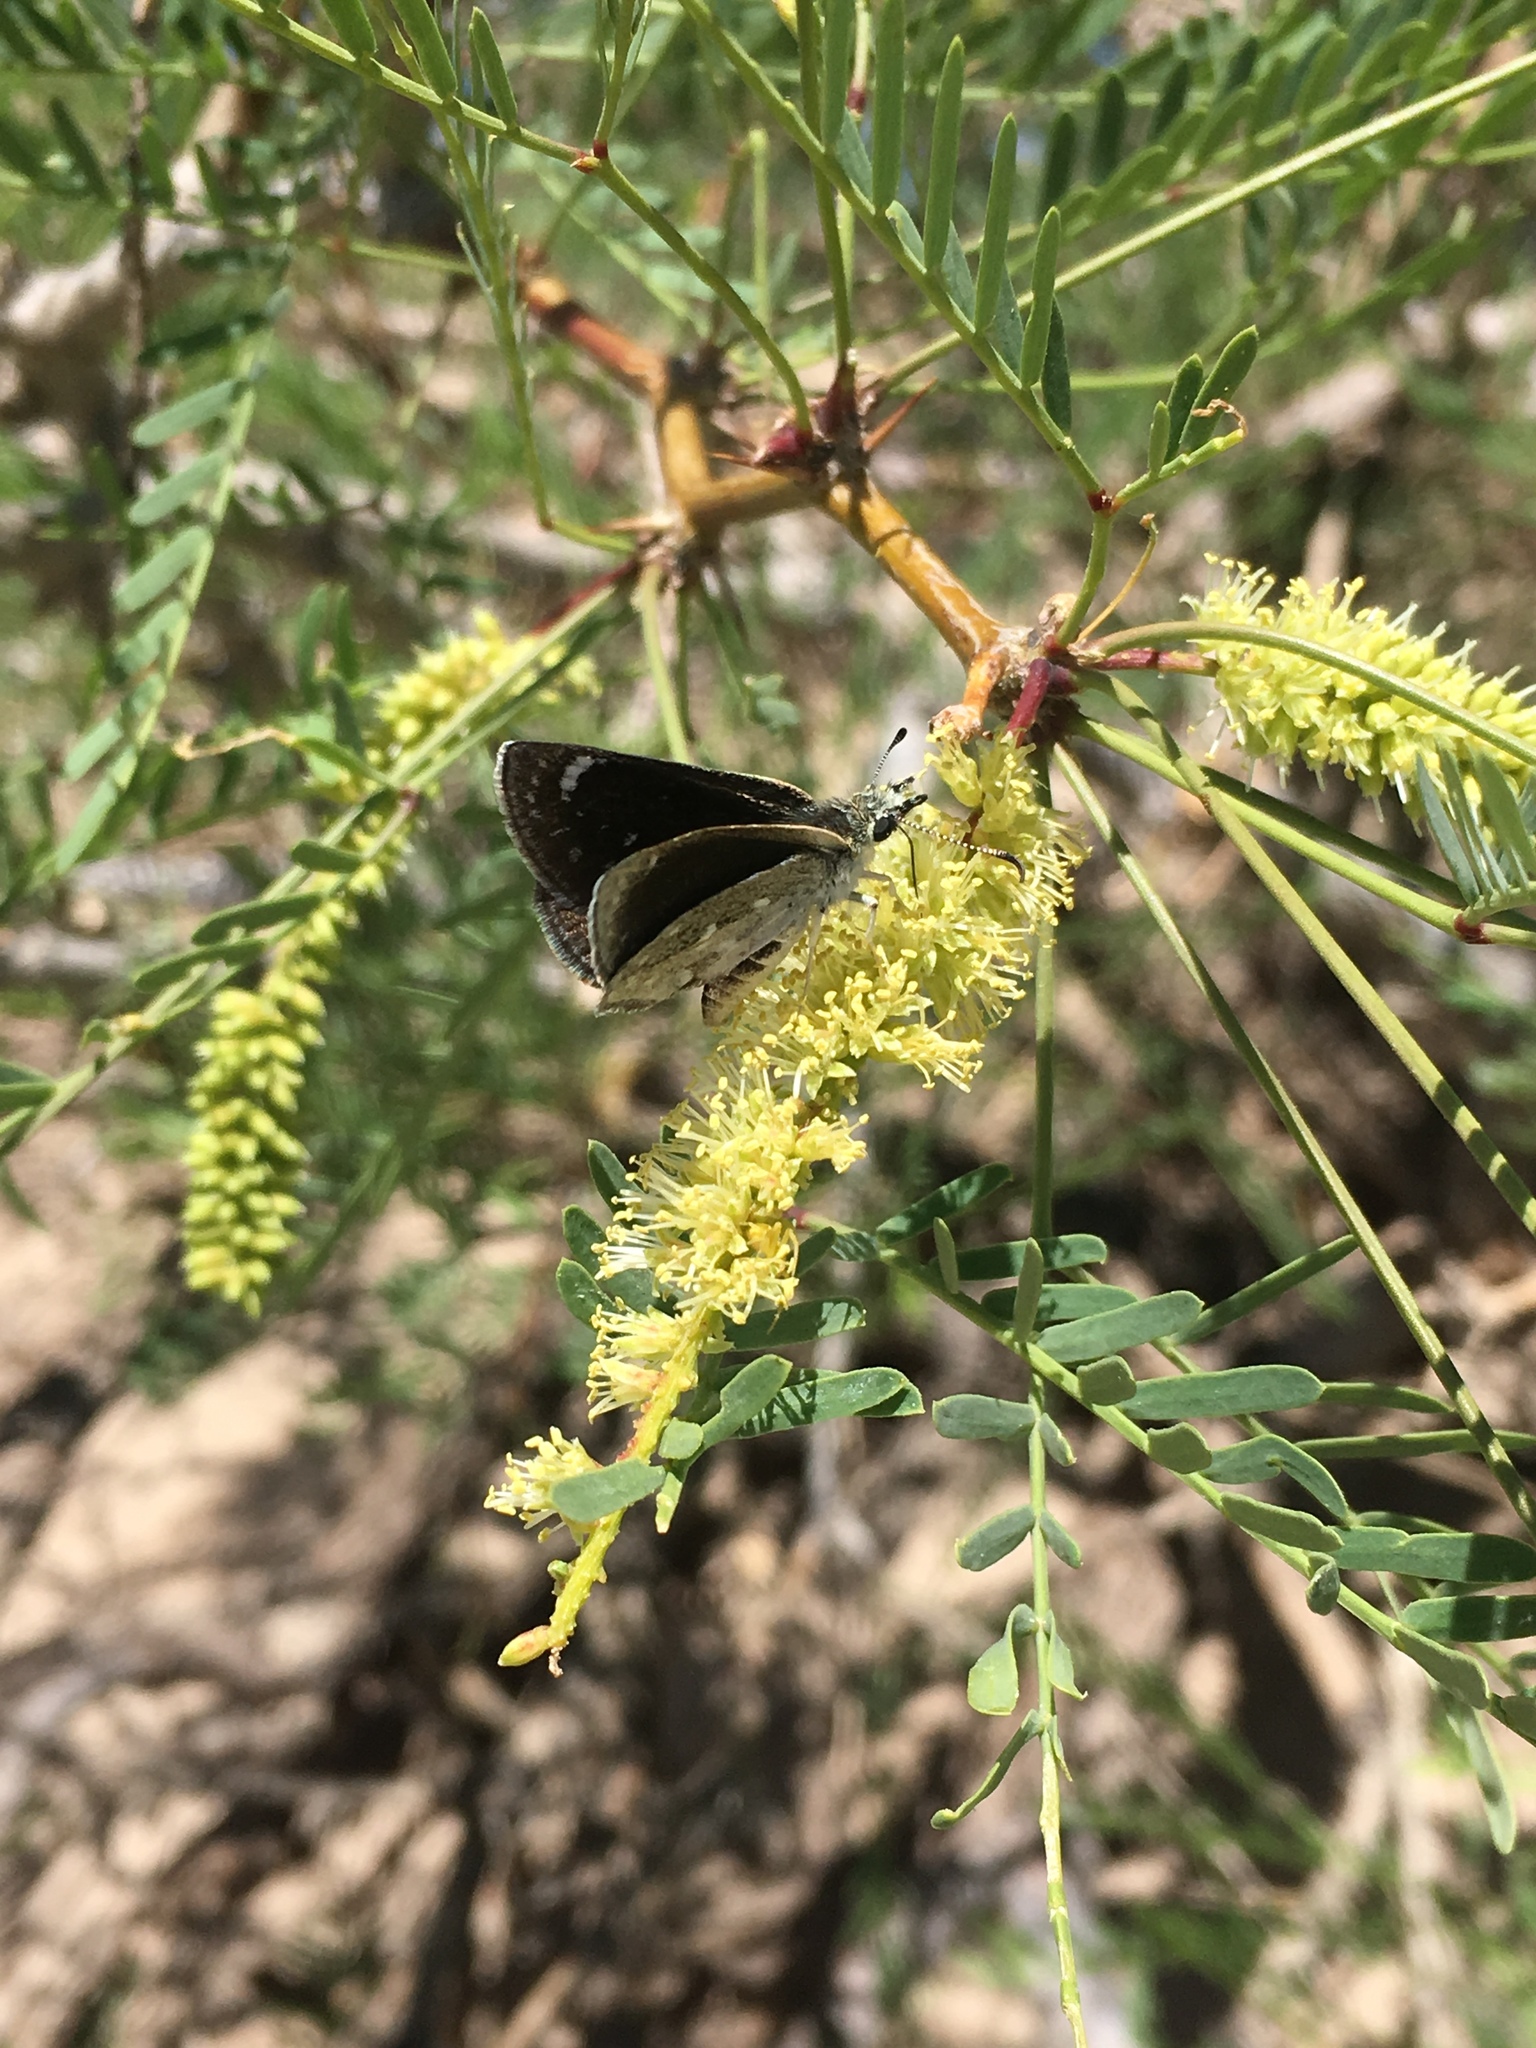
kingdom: Animalia
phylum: Arthropoda
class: Insecta
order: Lepidoptera
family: Hesperiidae
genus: Pholisora
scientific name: Pholisora libya
